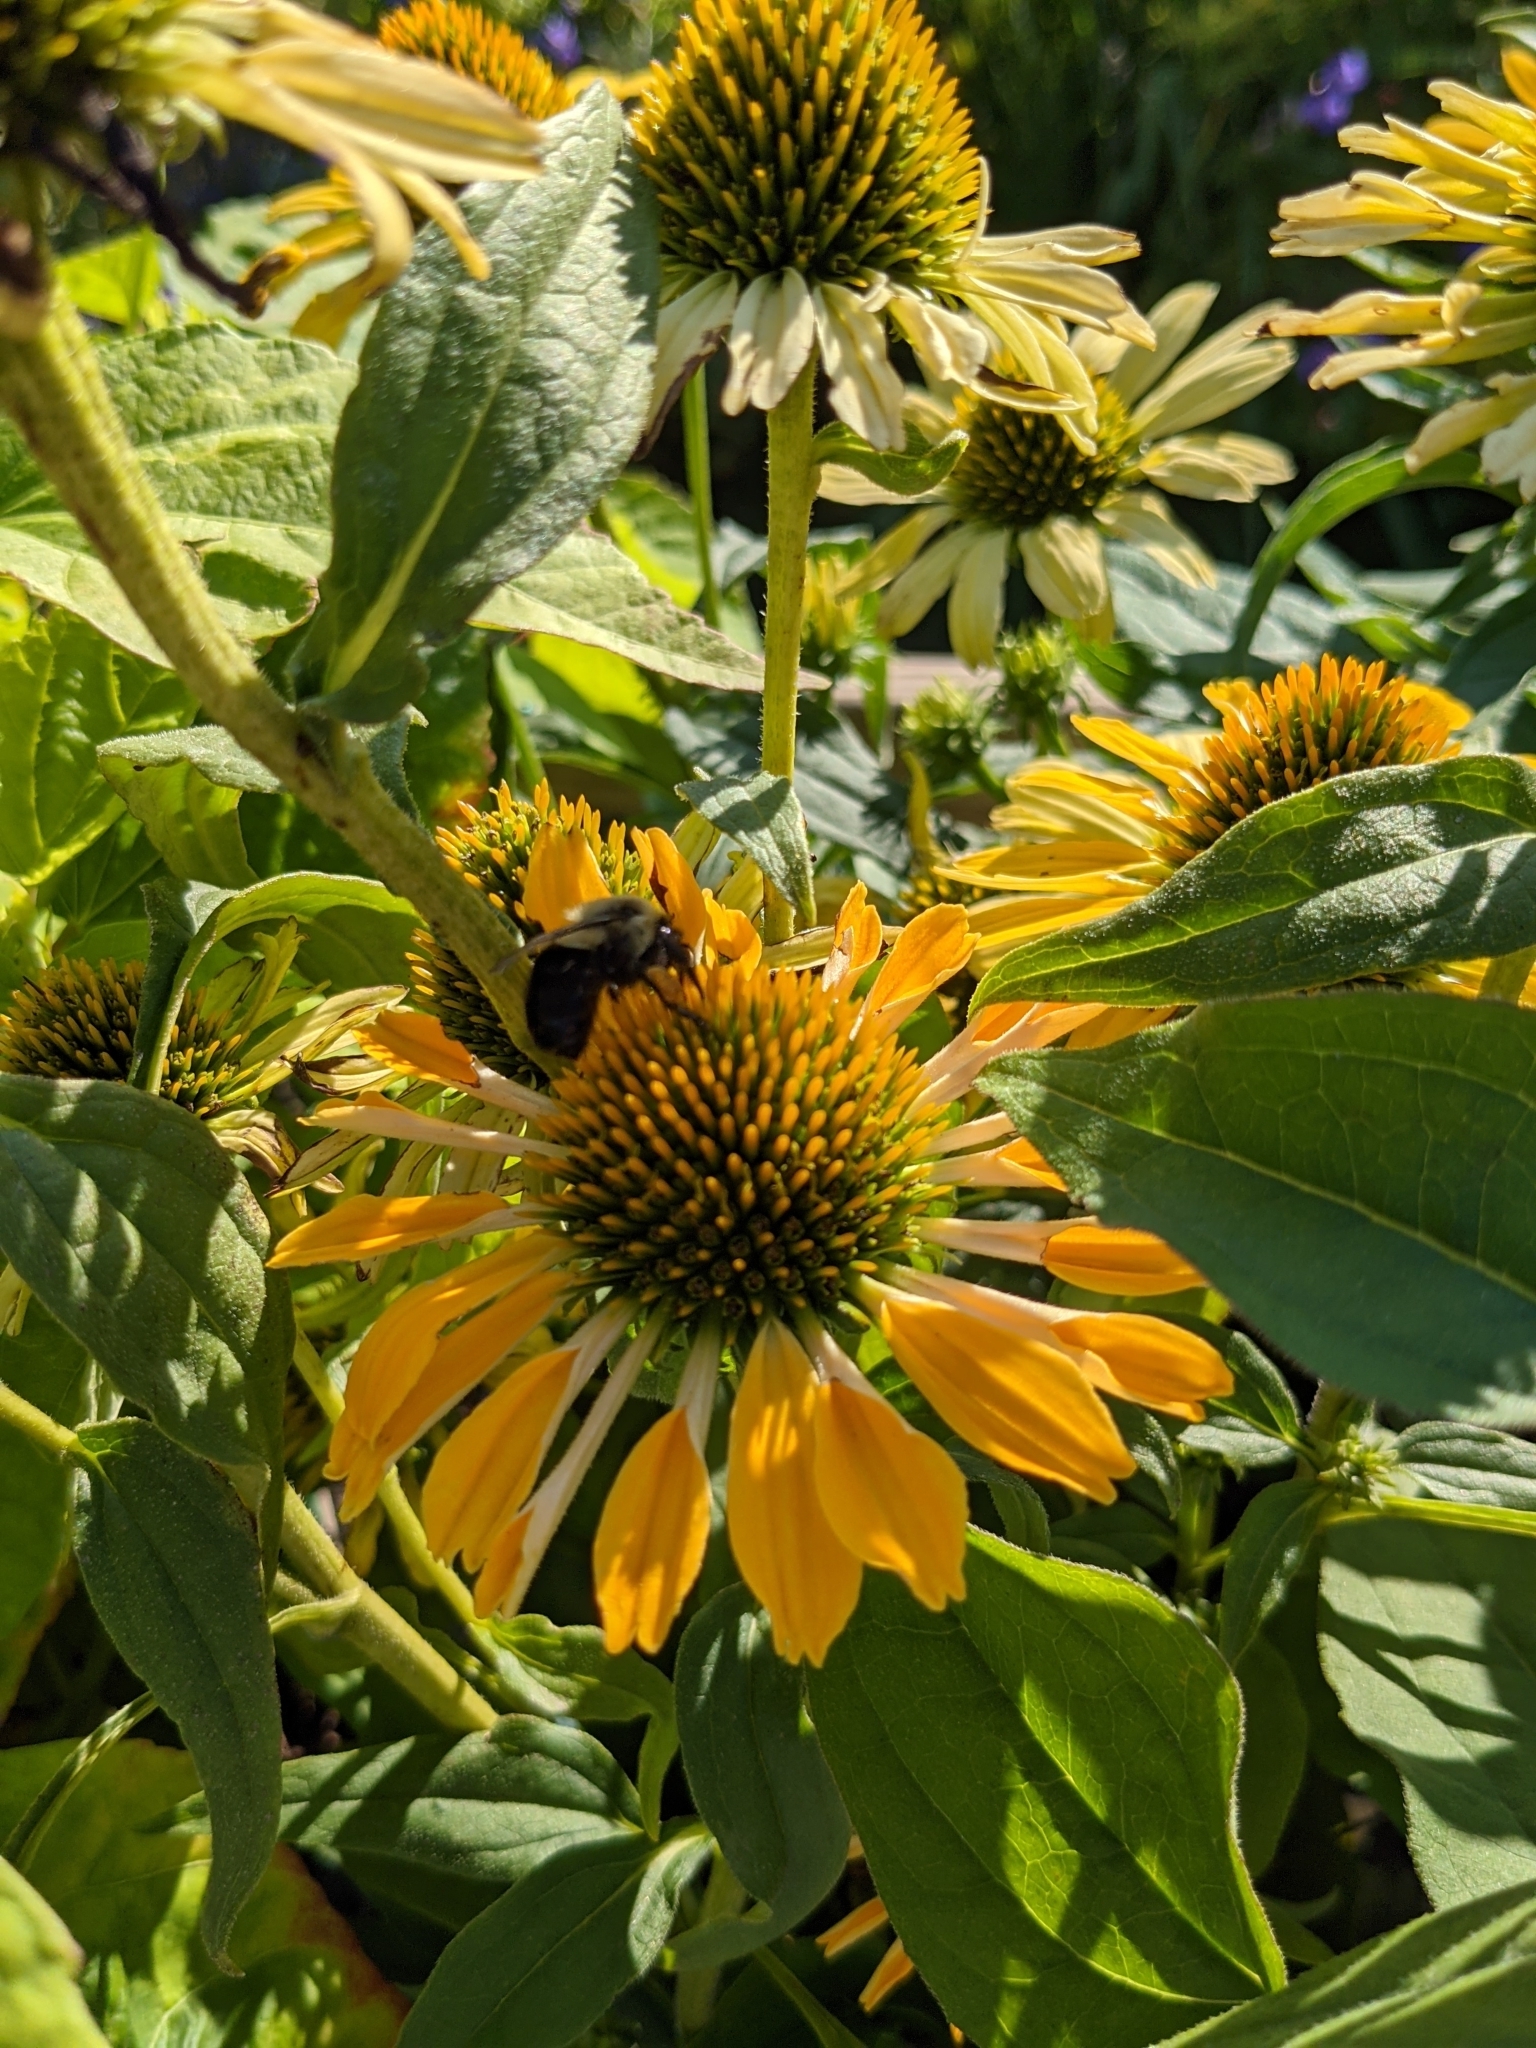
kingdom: Animalia
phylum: Arthropoda
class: Insecta
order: Hymenoptera
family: Apidae
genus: Bombus
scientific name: Bombus impatiens
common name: Common eastern bumble bee
